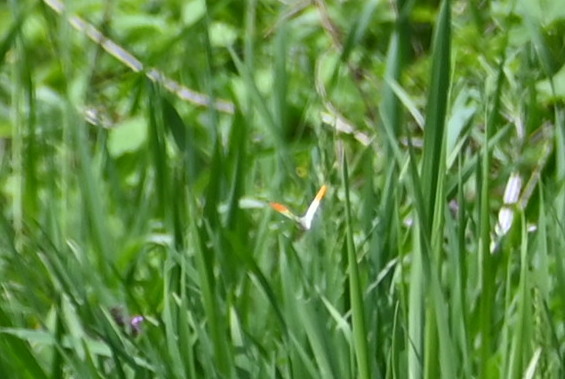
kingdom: Animalia
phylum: Arthropoda
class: Insecta
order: Lepidoptera
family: Pieridae
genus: Anthocharis
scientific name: Anthocharis cardamines
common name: Orange-tip
